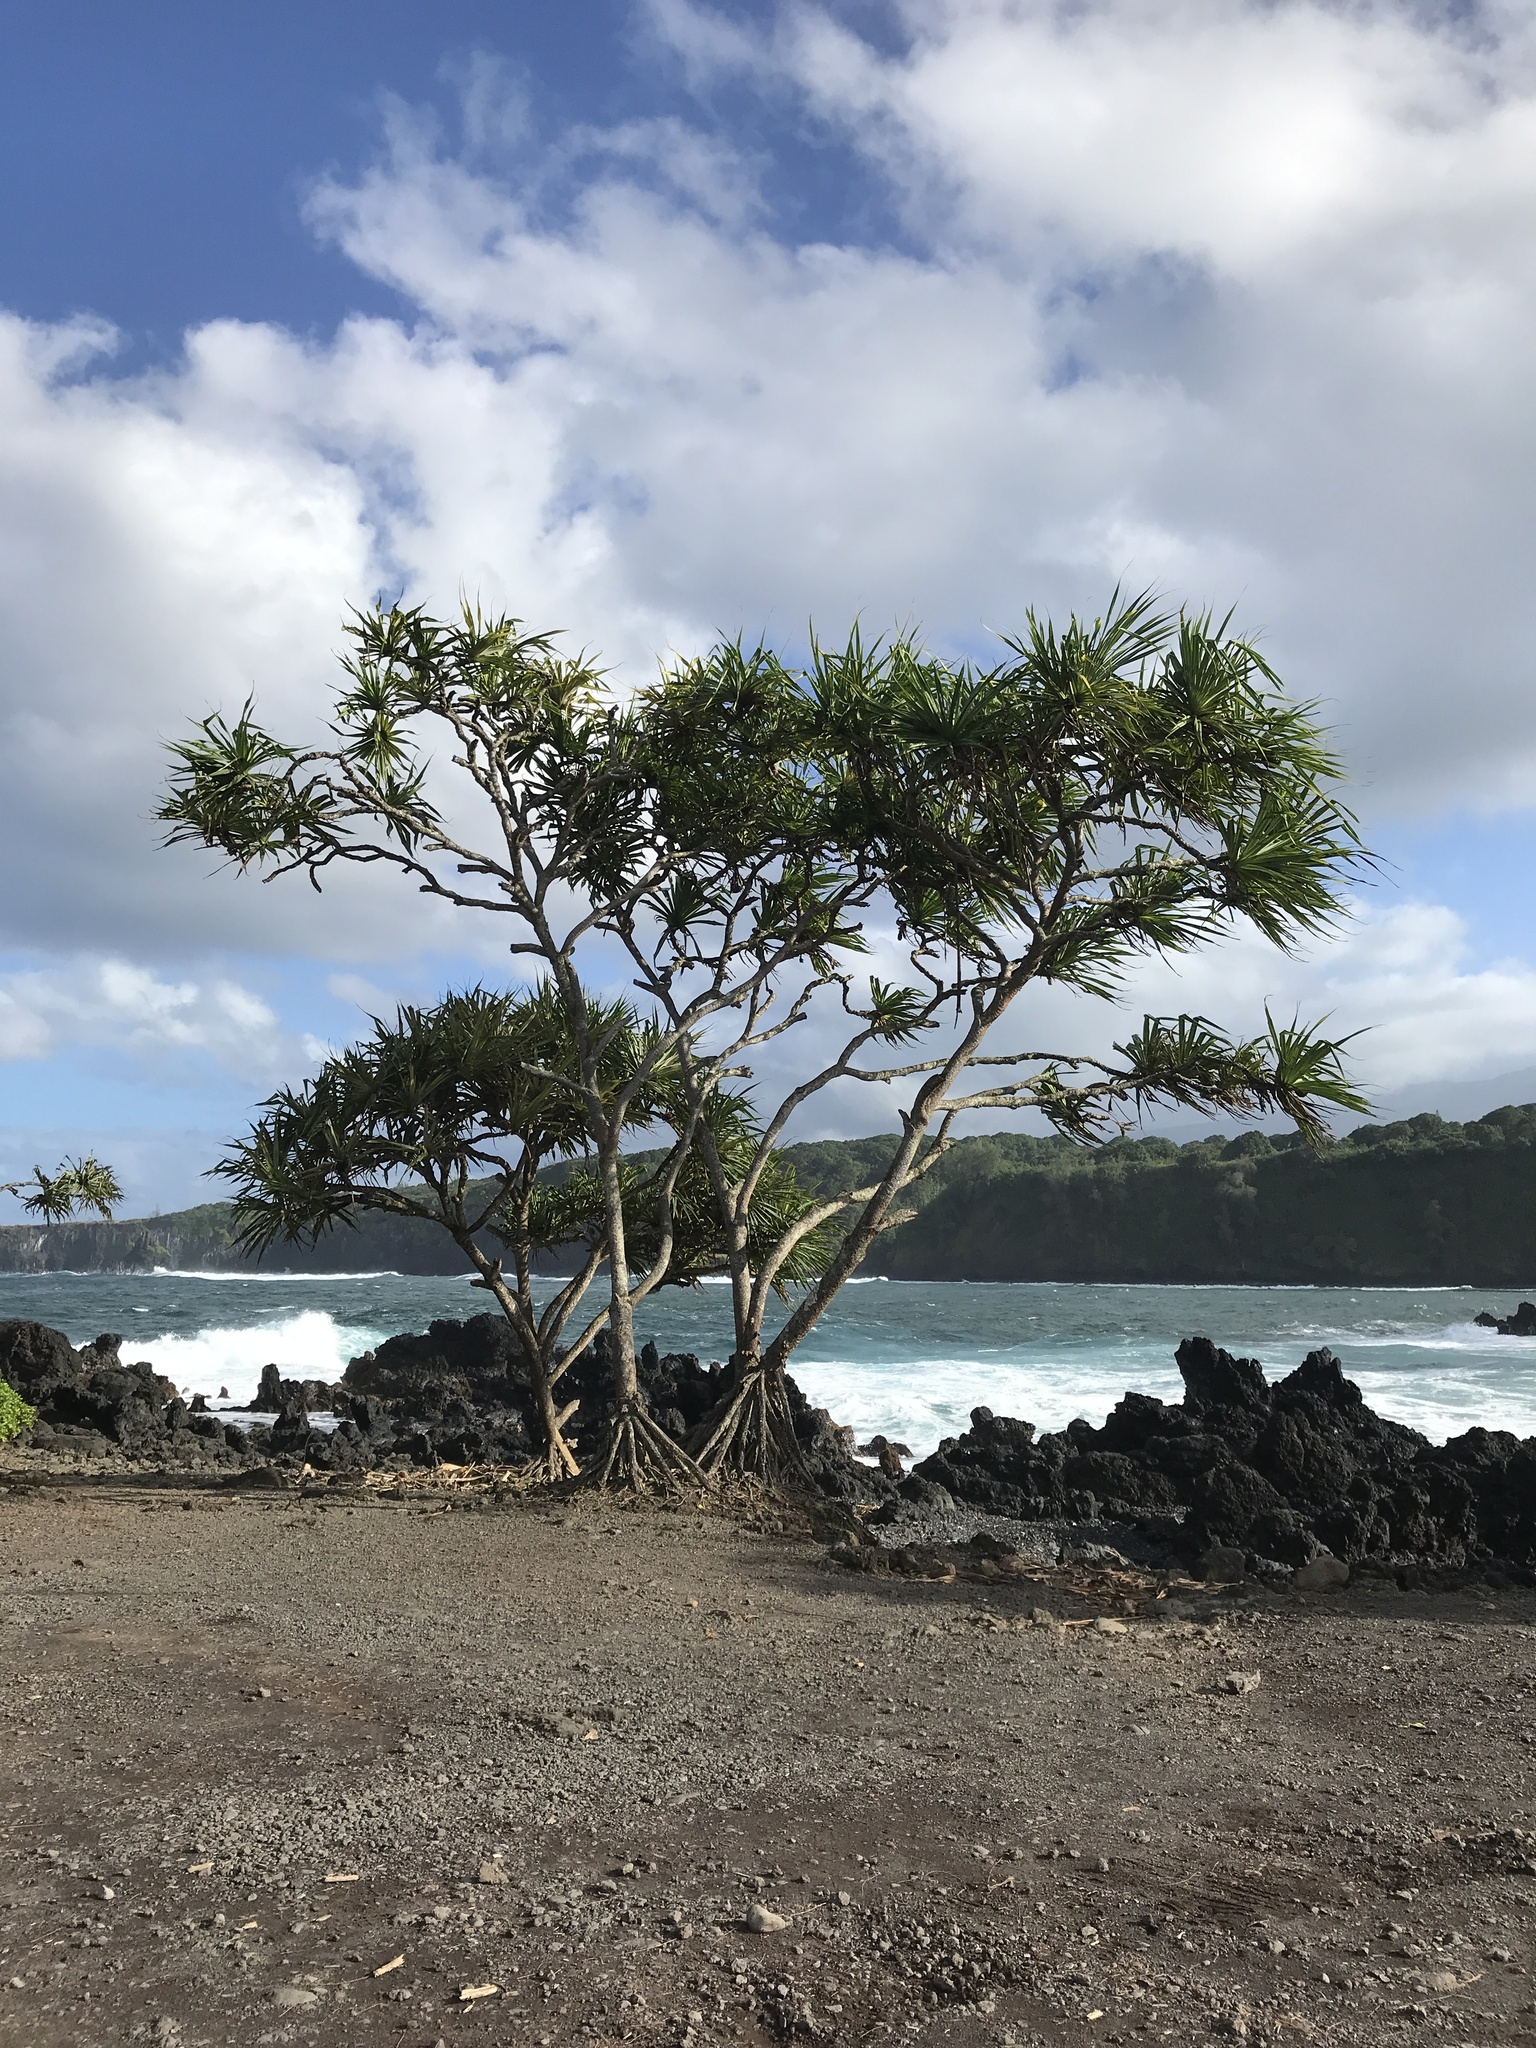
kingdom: Plantae
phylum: Tracheophyta
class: Liliopsida
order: Pandanales
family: Pandanaceae
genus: Pandanus
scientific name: Pandanus tectorius
